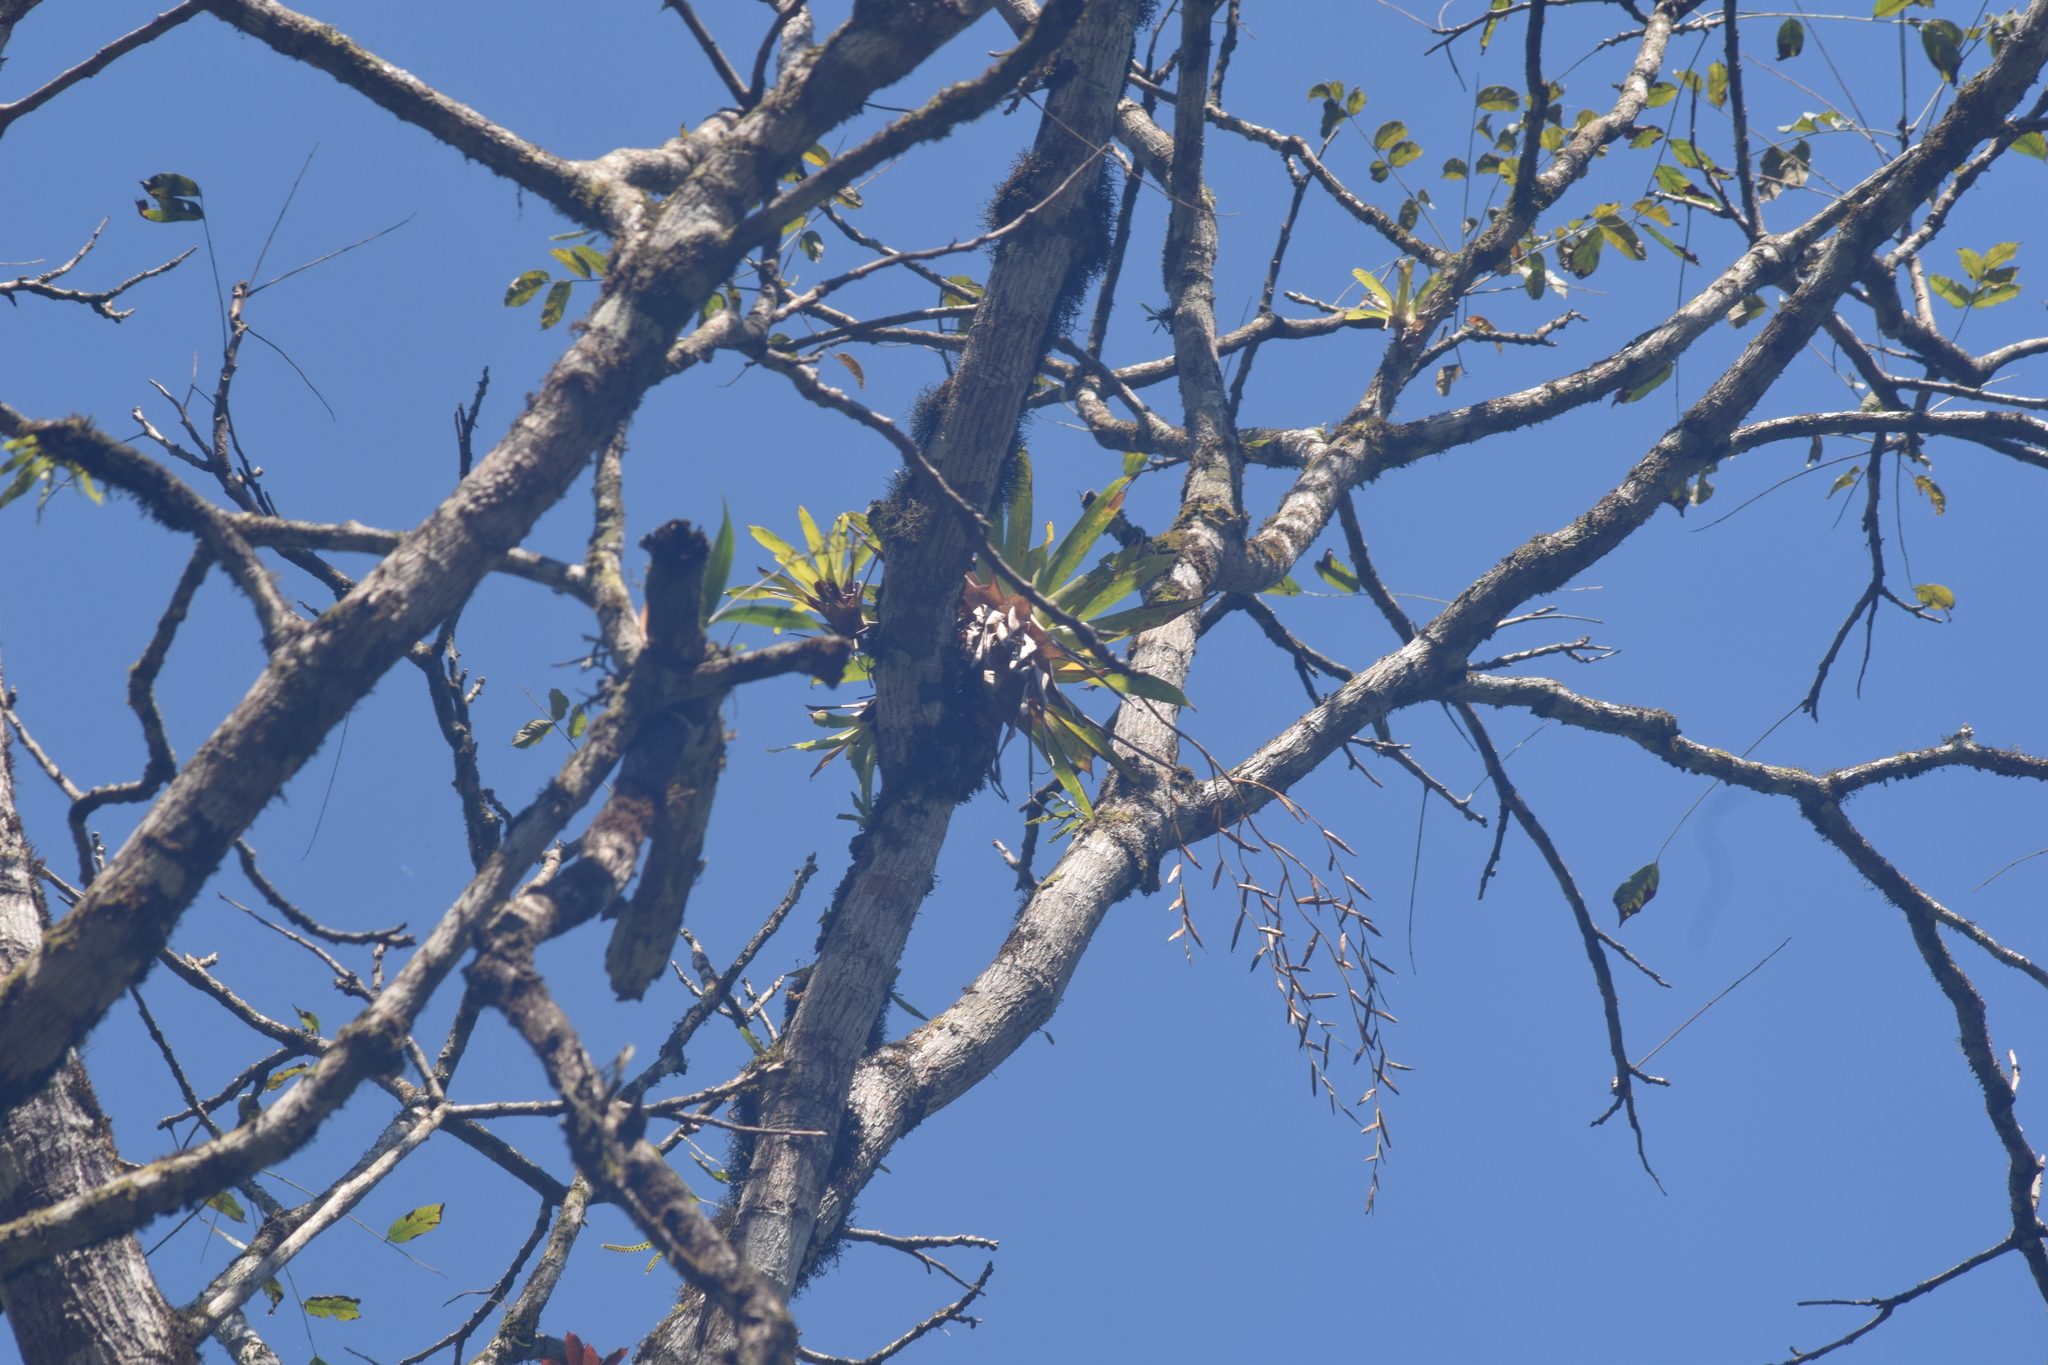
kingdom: Plantae
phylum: Tracheophyta
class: Liliopsida
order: Poales
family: Bromeliaceae
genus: Vriesea
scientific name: Vriesea procera
